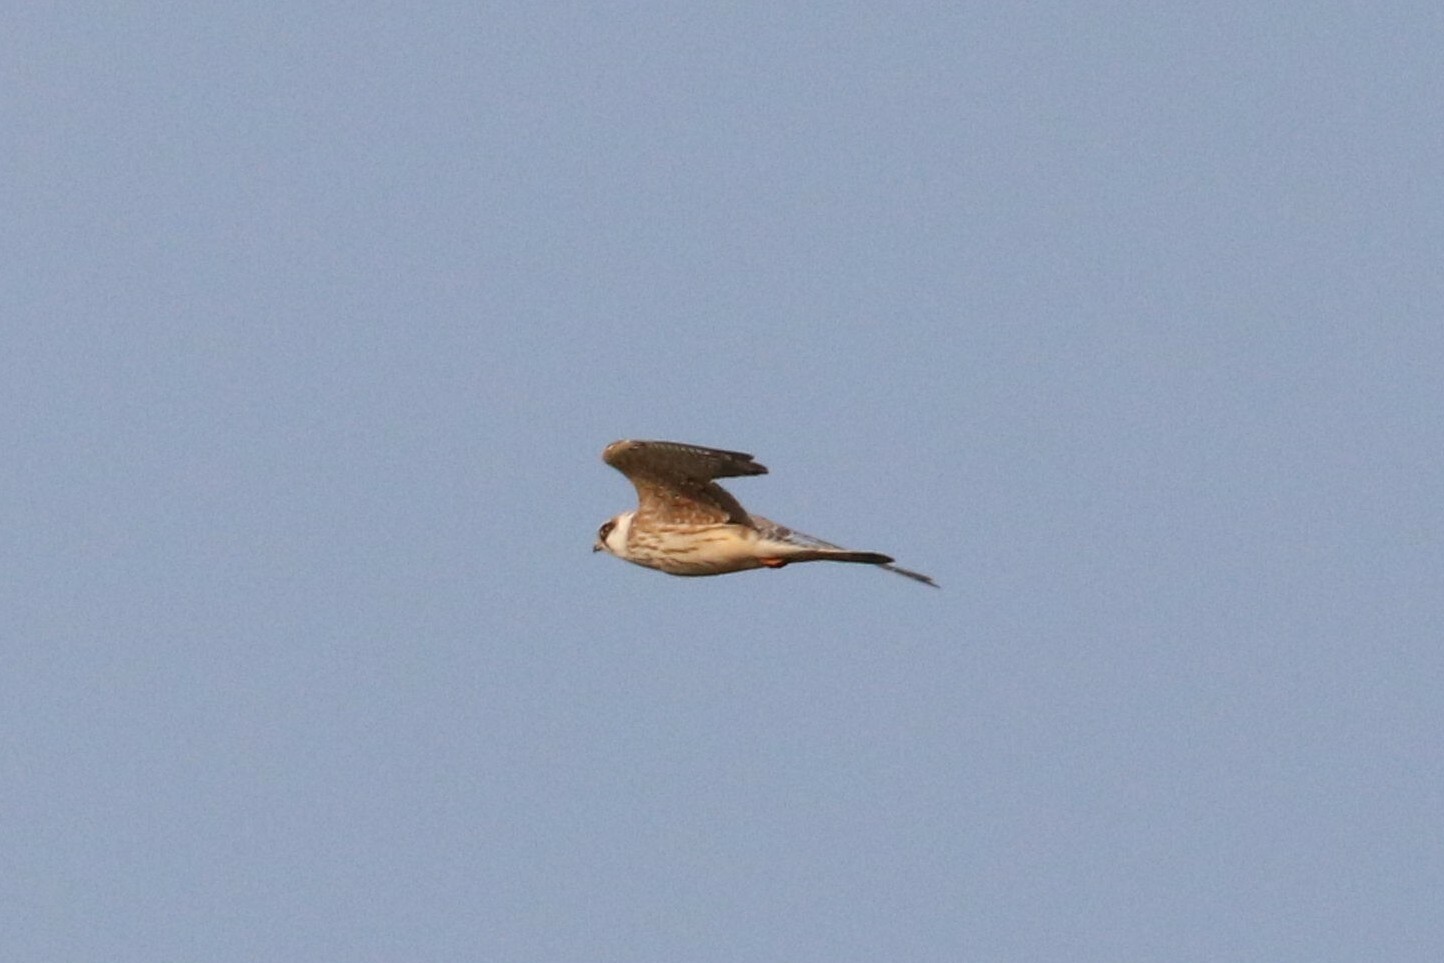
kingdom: Animalia
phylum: Chordata
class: Aves
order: Falconiformes
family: Falconidae
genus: Falco
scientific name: Falco vespertinus
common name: Red-footed falcon
